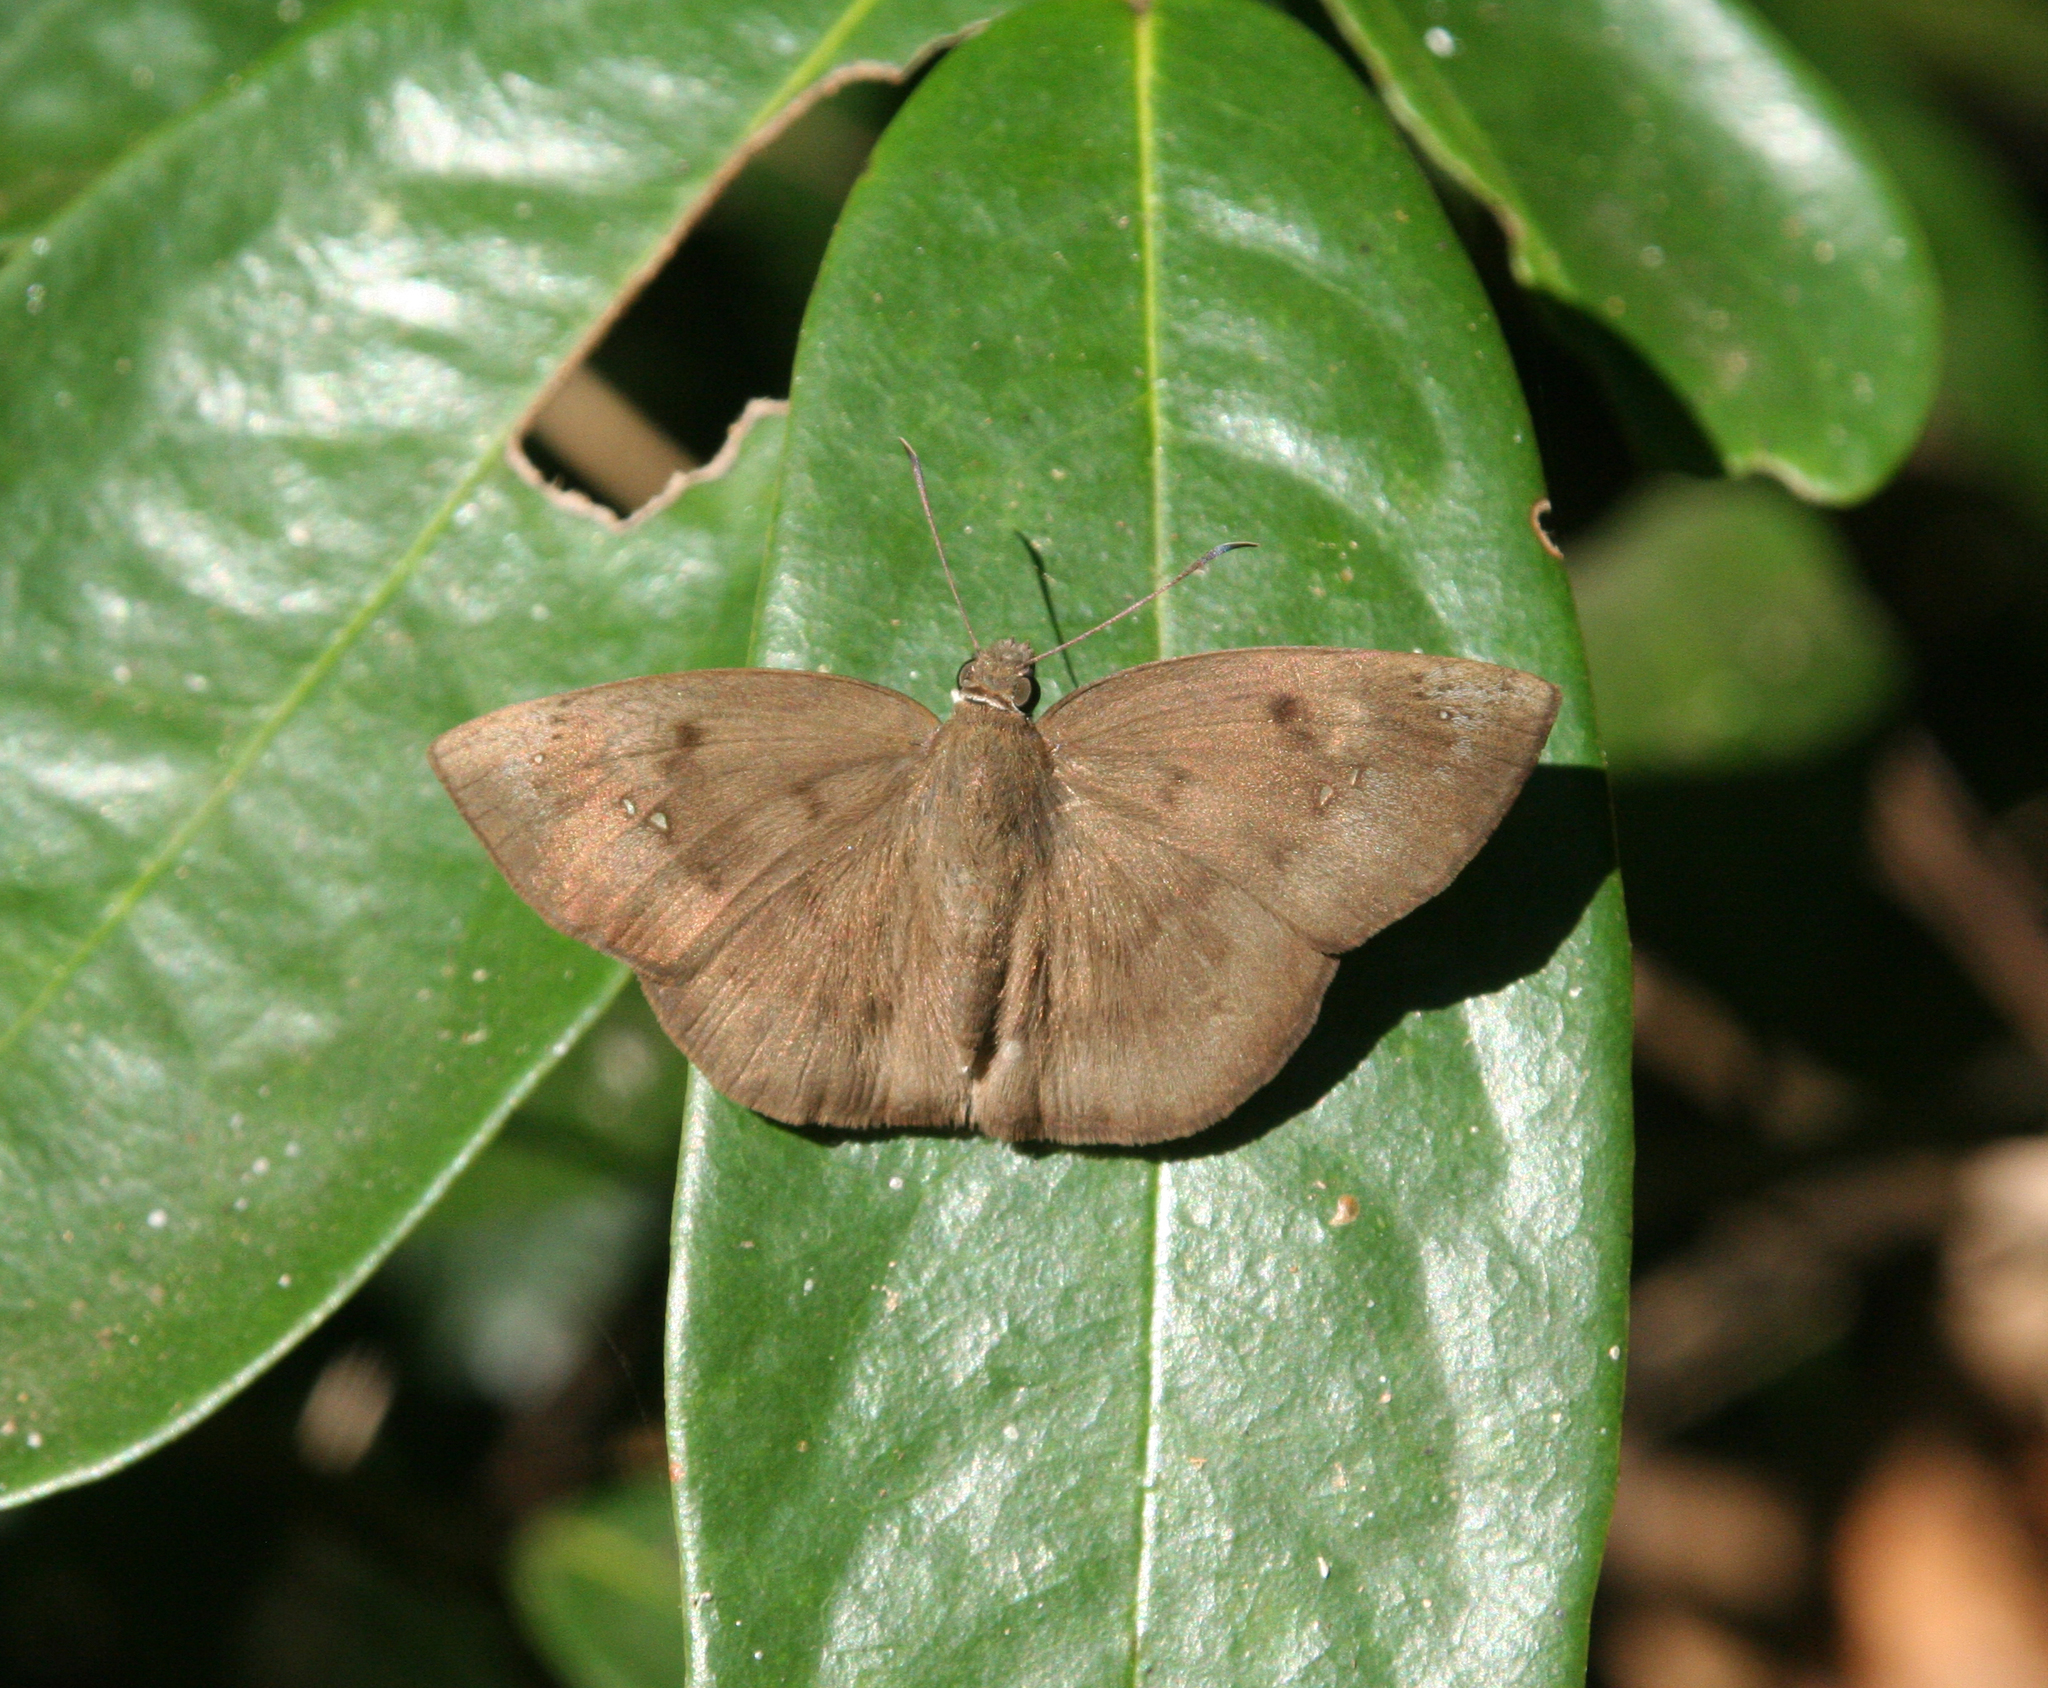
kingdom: Animalia
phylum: Arthropoda
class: Insecta
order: Lepidoptera
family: Hesperiidae
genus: Tagiades
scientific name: Tagiades japetus
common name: Pied flat
